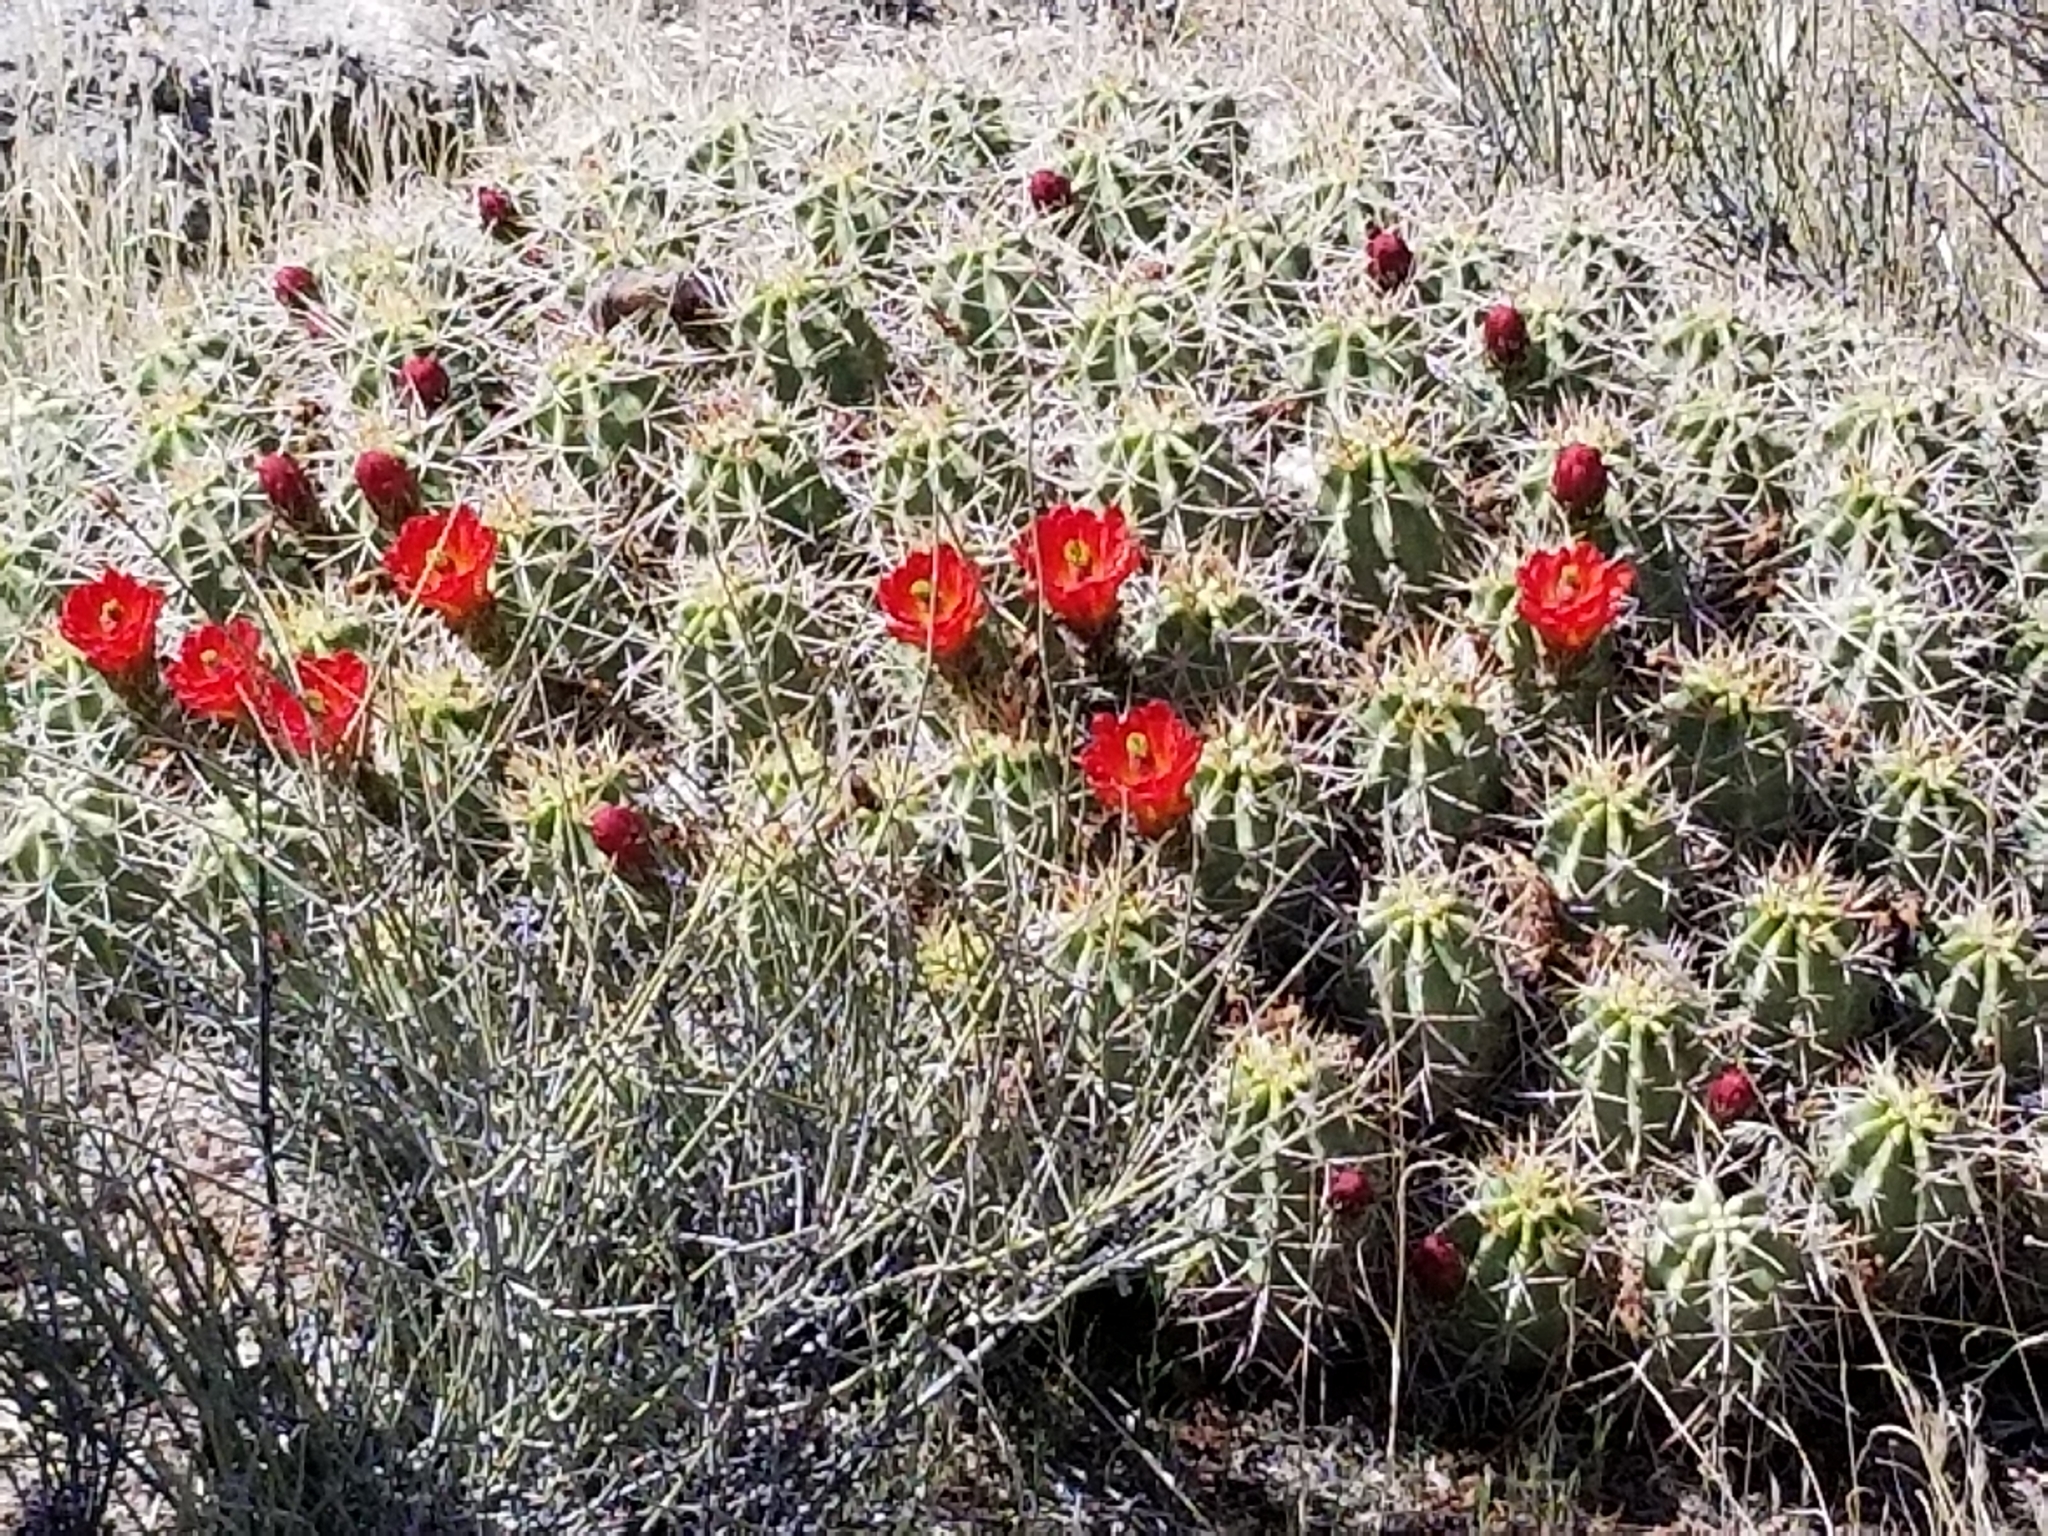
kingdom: Plantae
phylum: Tracheophyta
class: Magnoliopsida
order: Caryophyllales
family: Cactaceae
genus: Echinocereus
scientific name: Echinocereus triglochidiatus
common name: Claretcup hedgehog
